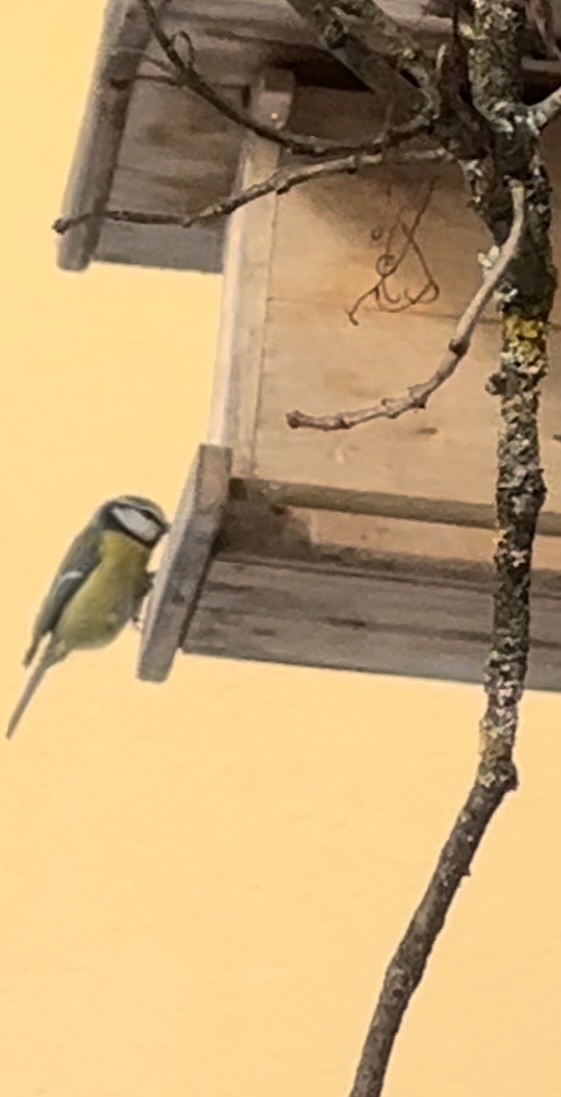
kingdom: Animalia
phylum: Chordata
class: Aves
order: Passeriformes
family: Paridae
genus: Cyanistes
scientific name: Cyanistes caeruleus
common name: Eurasian blue tit
